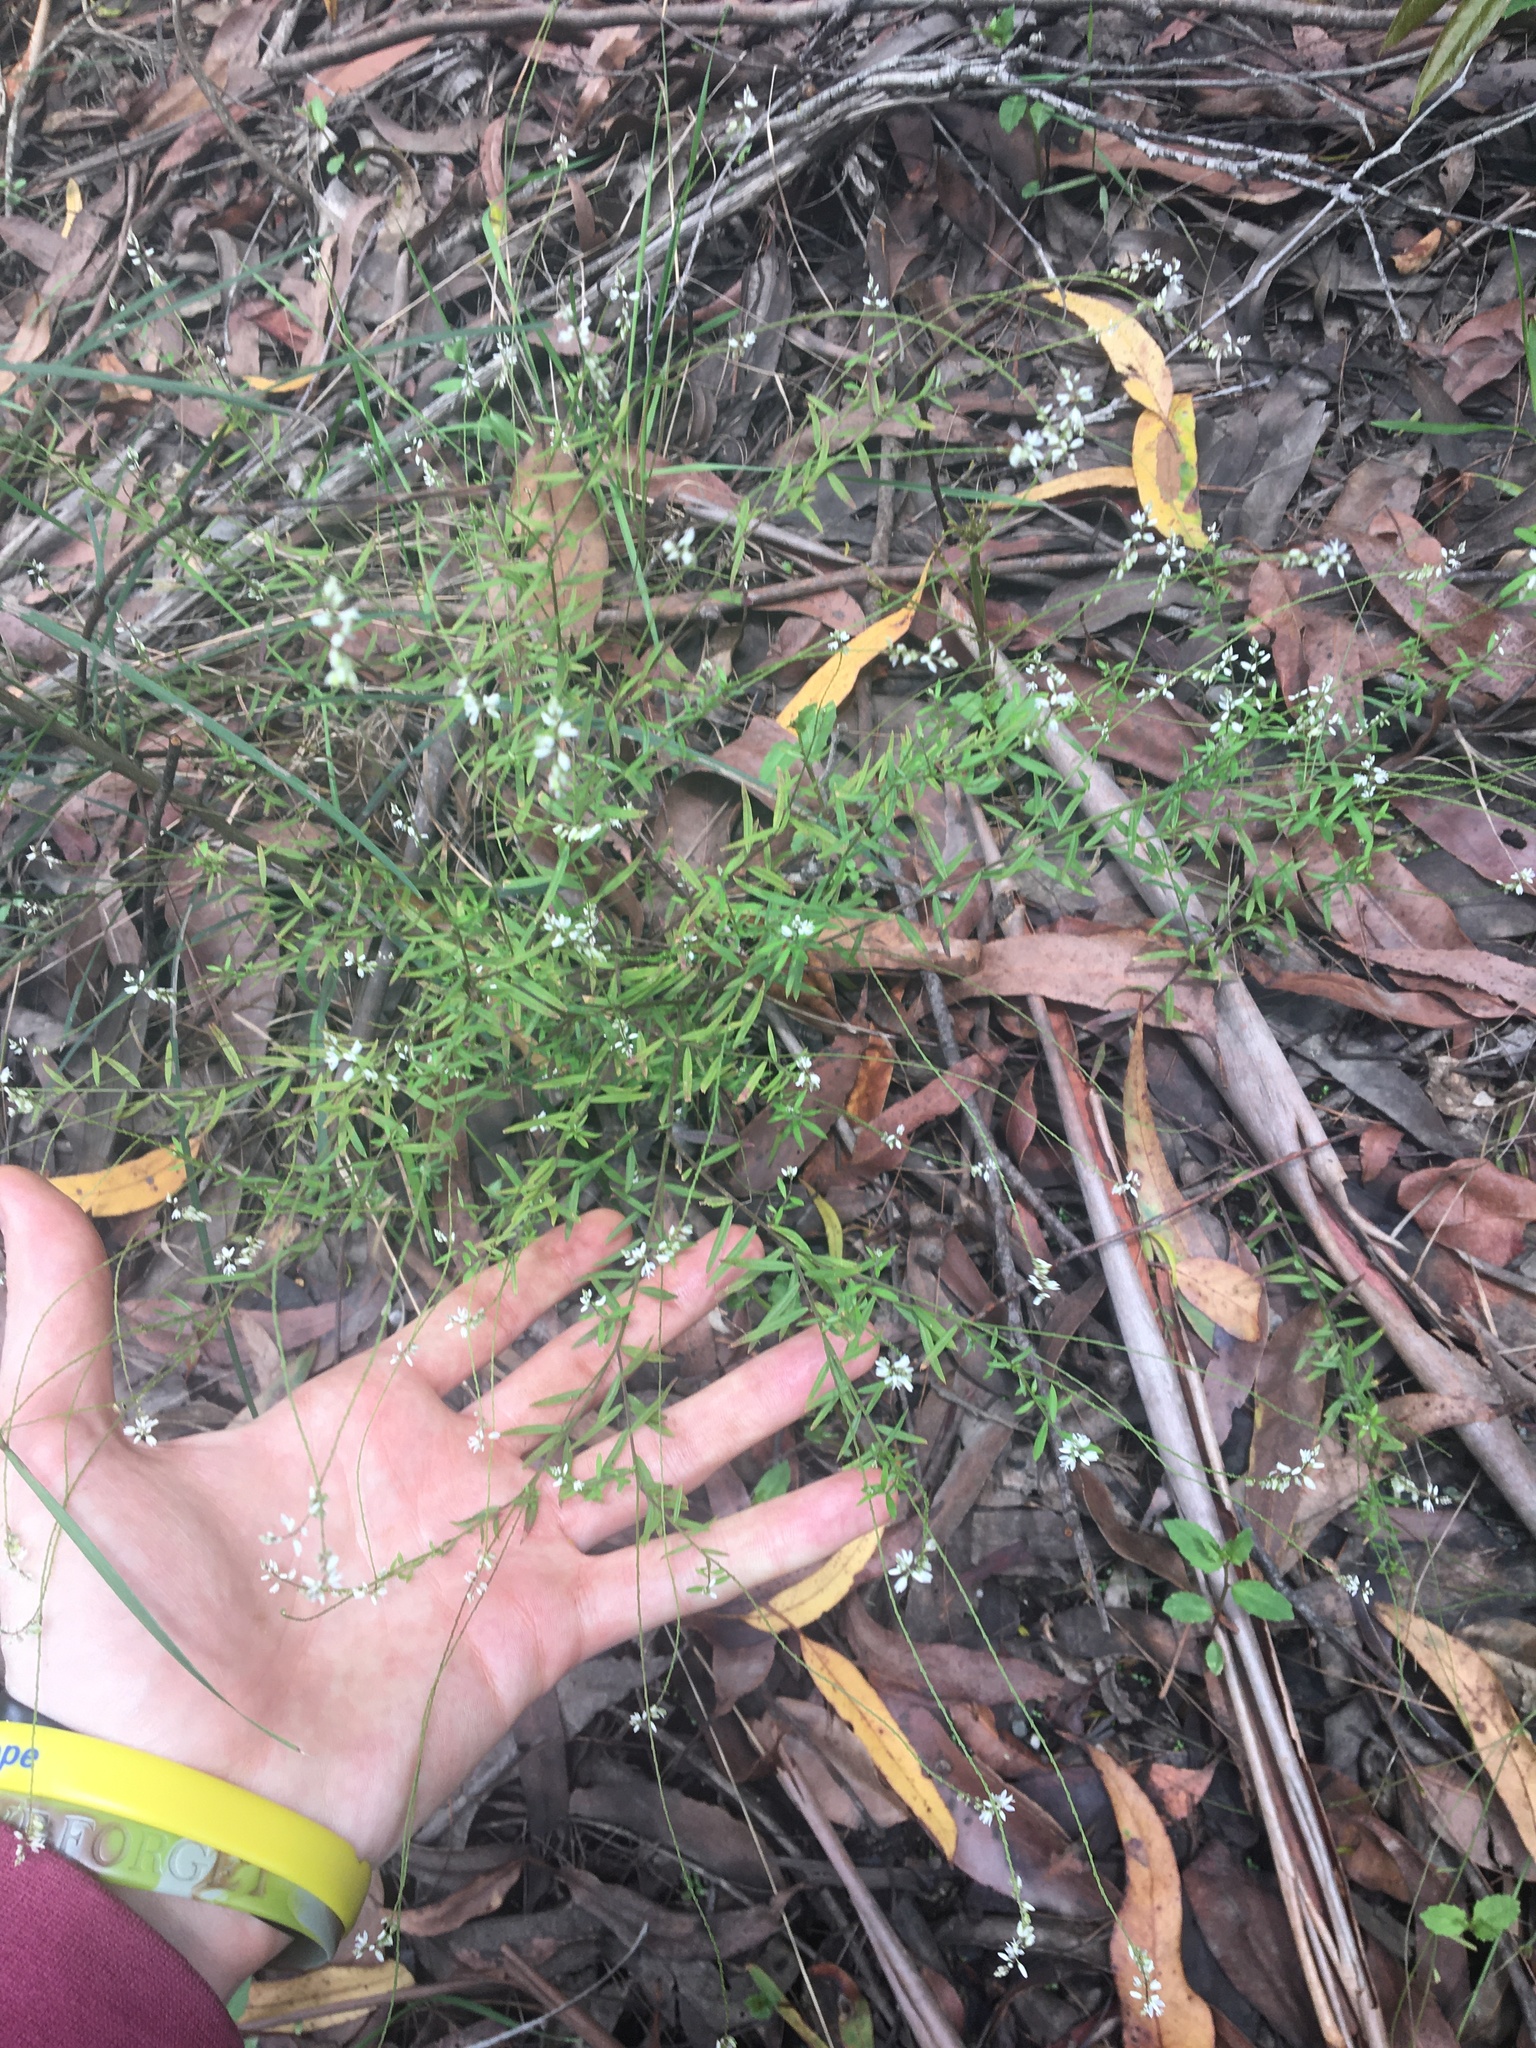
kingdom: Plantae
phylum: Tracheophyta
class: Magnoliopsida
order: Fabales
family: Polygalaceae
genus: Polygala
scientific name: Polygala paniculata
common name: Orosne
